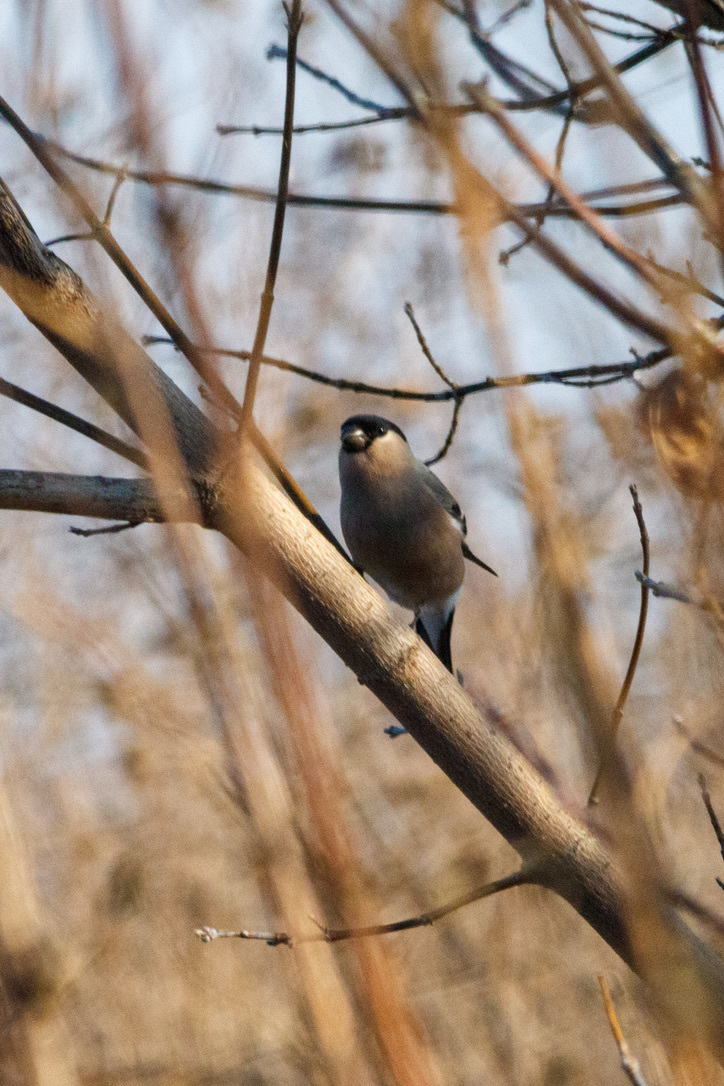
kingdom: Animalia
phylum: Chordata
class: Aves
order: Passeriformes
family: Fringillidae
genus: Pyrrhula
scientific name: Pyrrhula pyrrhula
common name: Eurasian bullfinch
